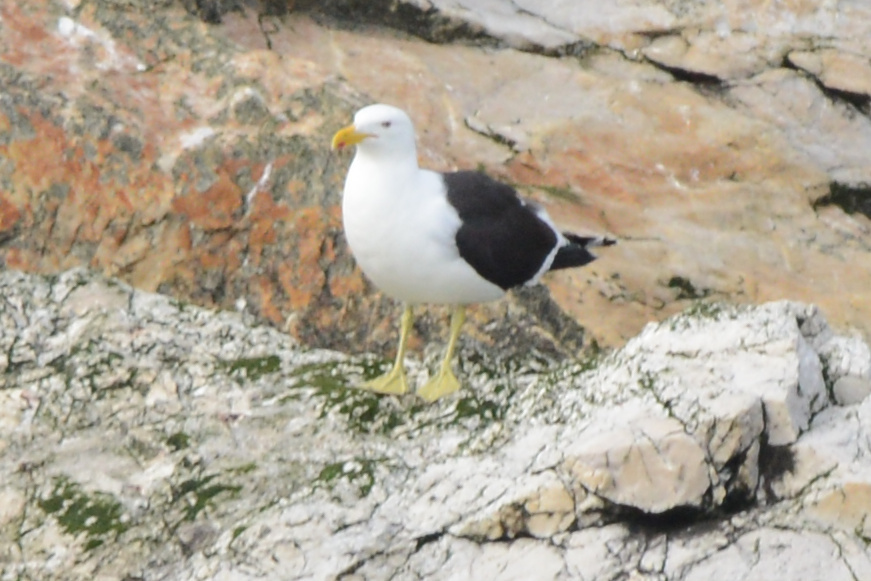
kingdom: Animalia
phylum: Chordata
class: Aves
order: Charadriiformes
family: Laridae
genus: Larus
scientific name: Larus dominicanus
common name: Kelp gull
